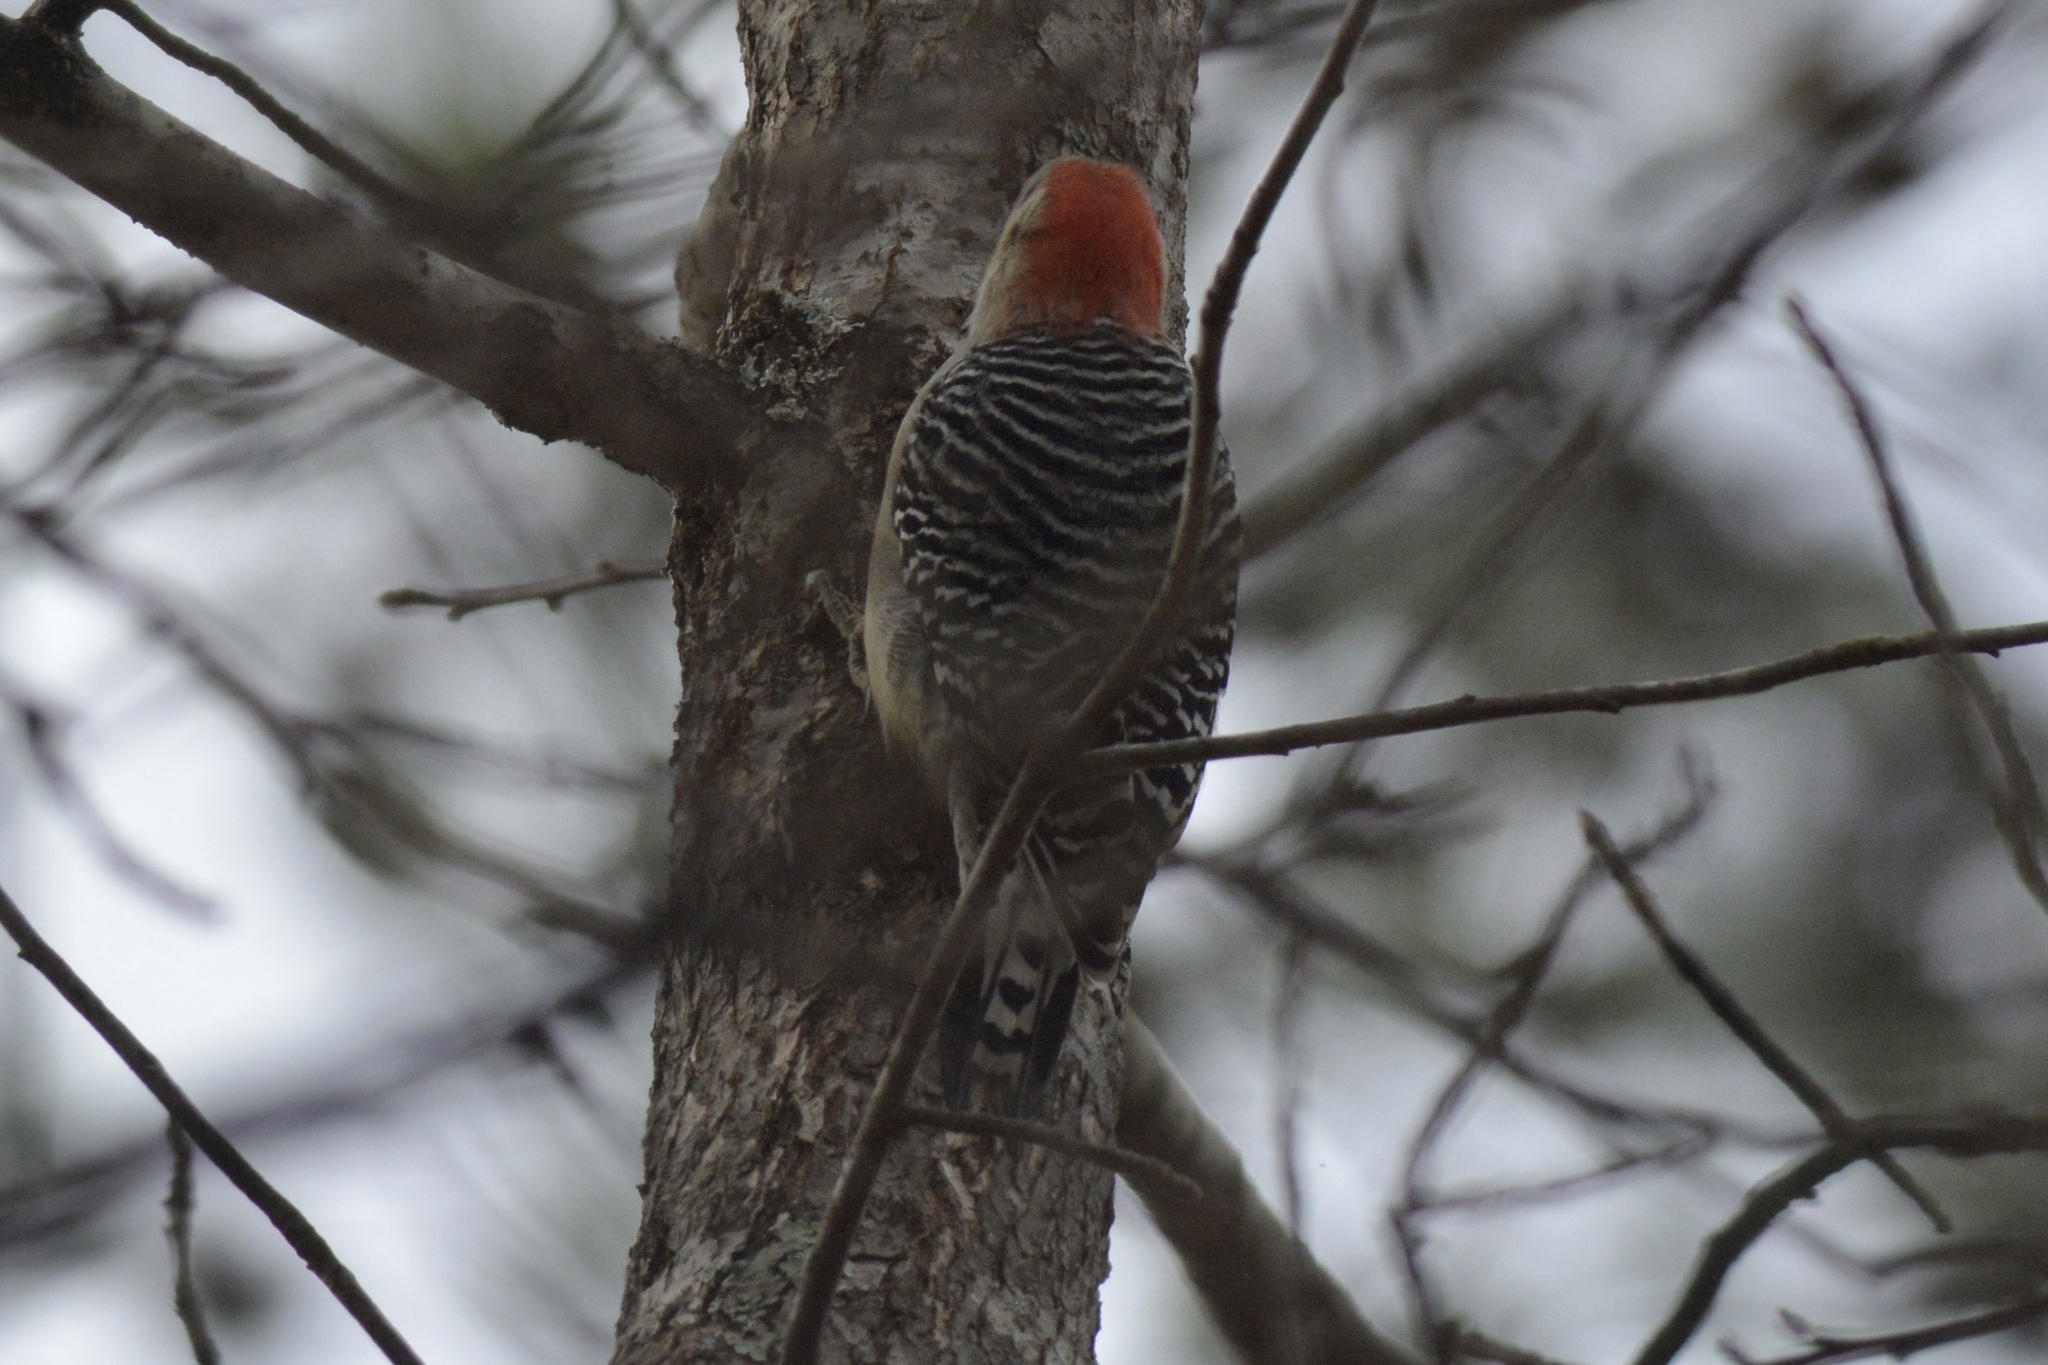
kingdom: Animalia
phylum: Chordata
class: Aves
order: Piciformes
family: Picidae
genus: Melanerpes
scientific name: Melanerpes carolinus
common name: Red-bellied woodpecker
